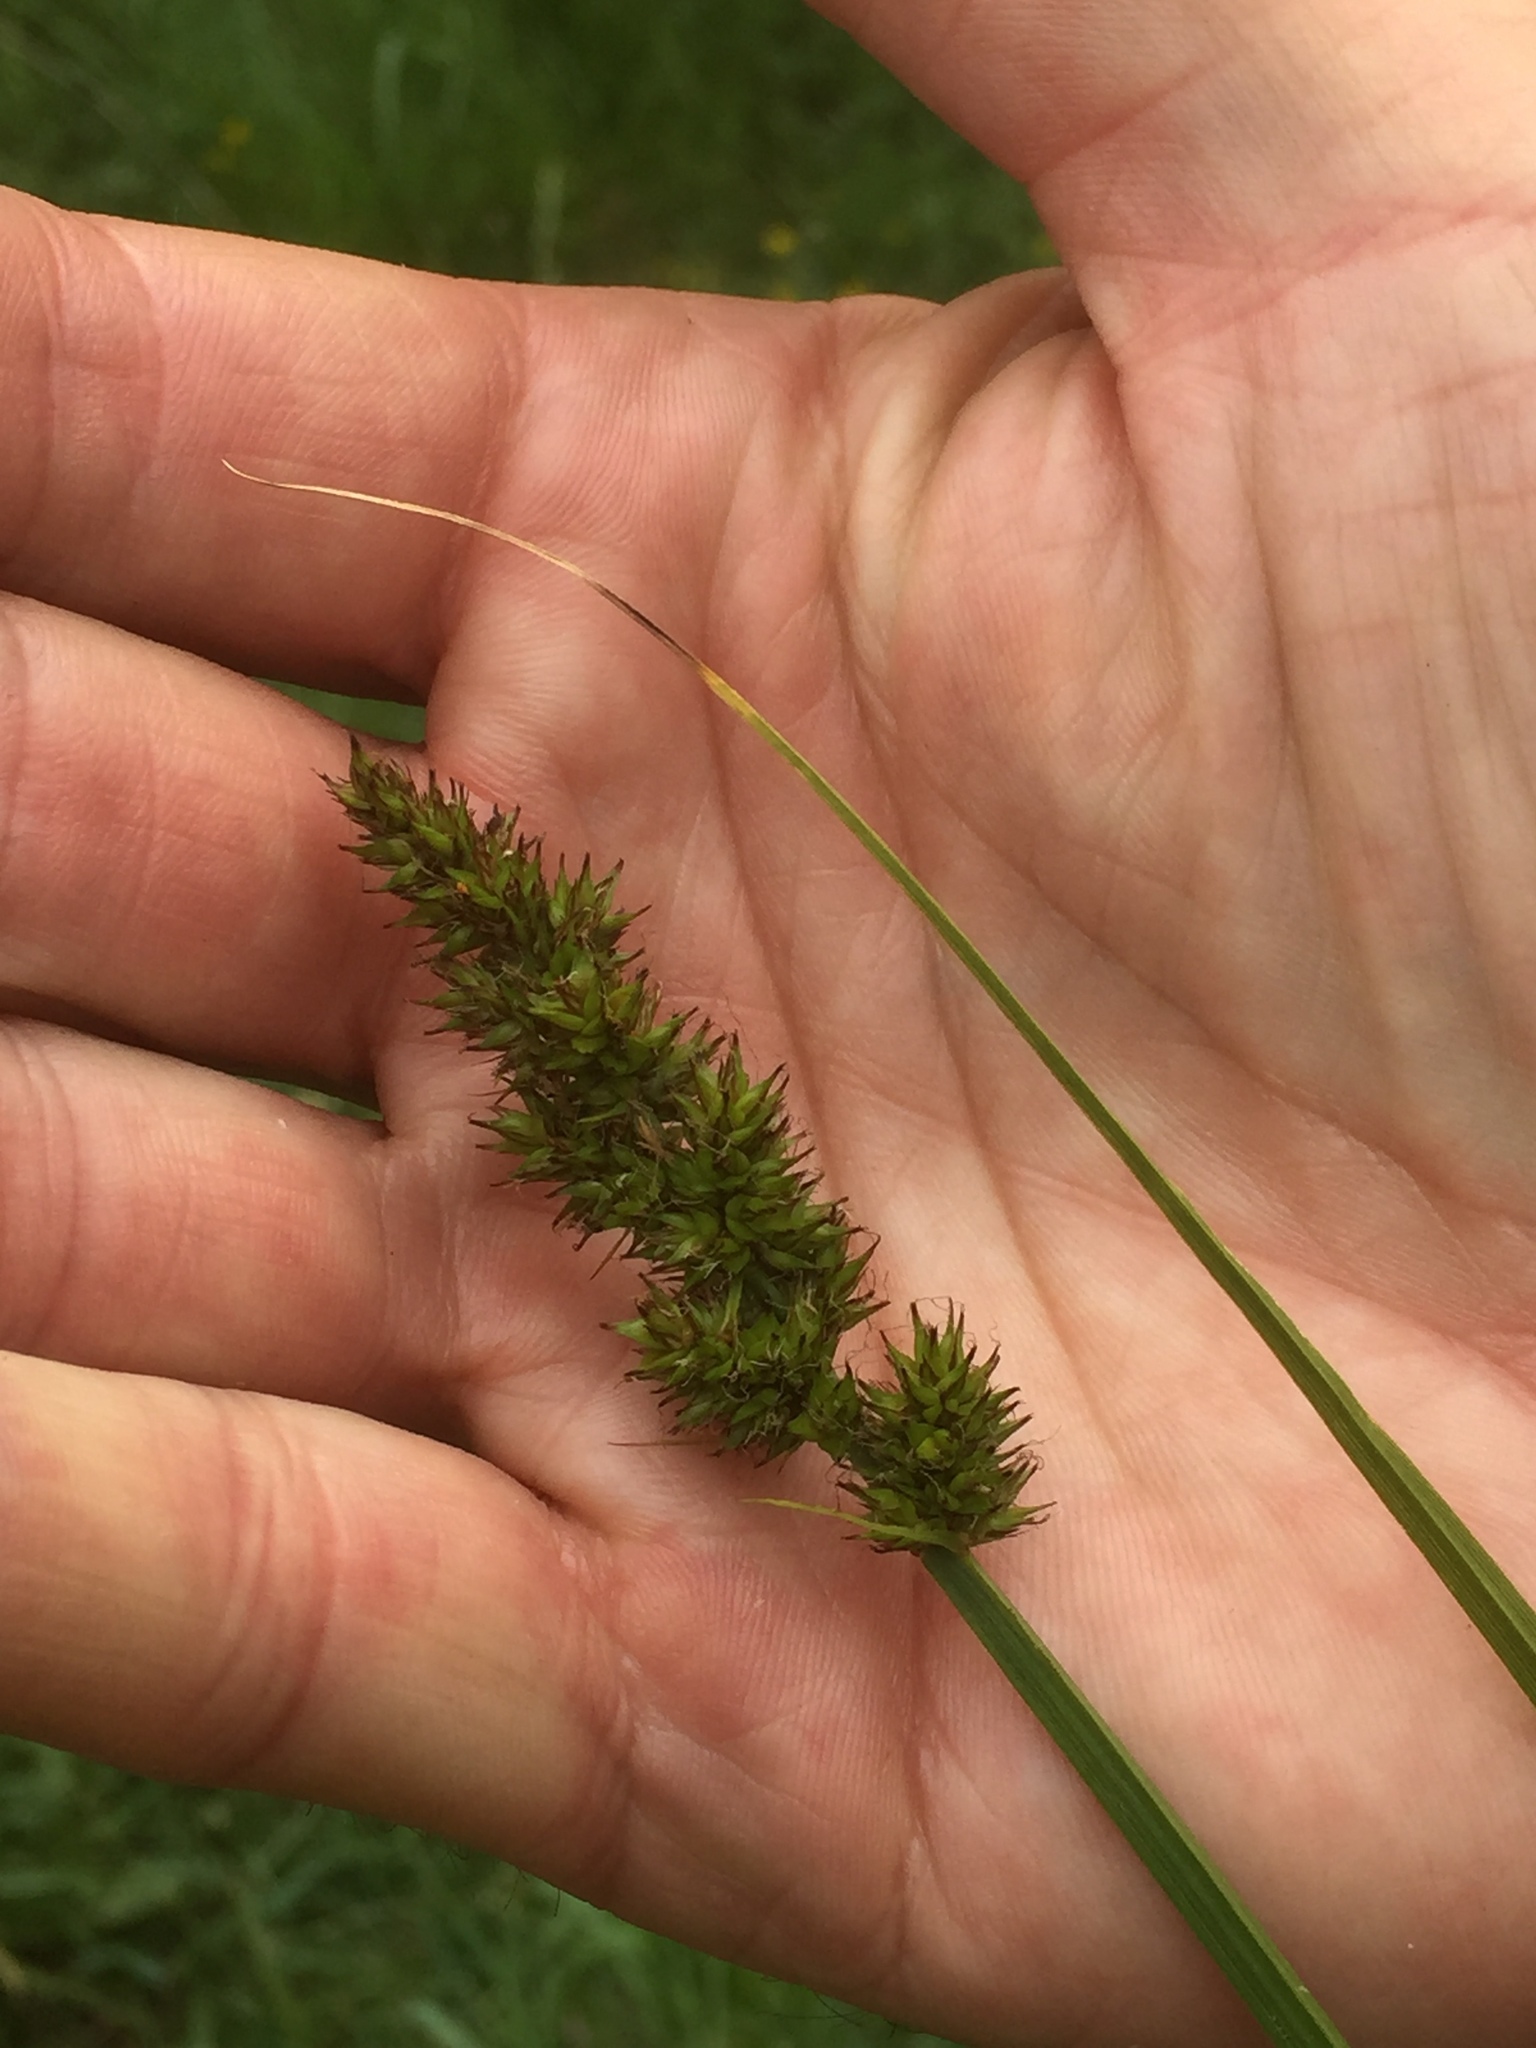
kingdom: Plantae
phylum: Tracheophyta
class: Liliopsida
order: Poales
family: Cyperaceae
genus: Carex
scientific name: Carex vulpina
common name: True fox-sedge
